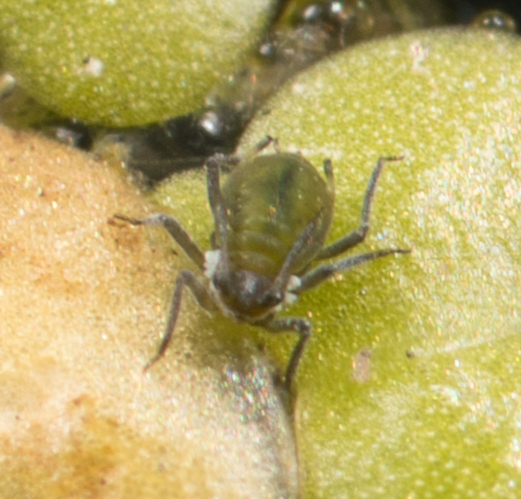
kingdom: Animalia
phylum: Arthropoda
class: Insecta
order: Hemiptera
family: Aphididae
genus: Rhopalosiphum
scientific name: Rhopalosiphum nymphaeae
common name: Water lily aphid
